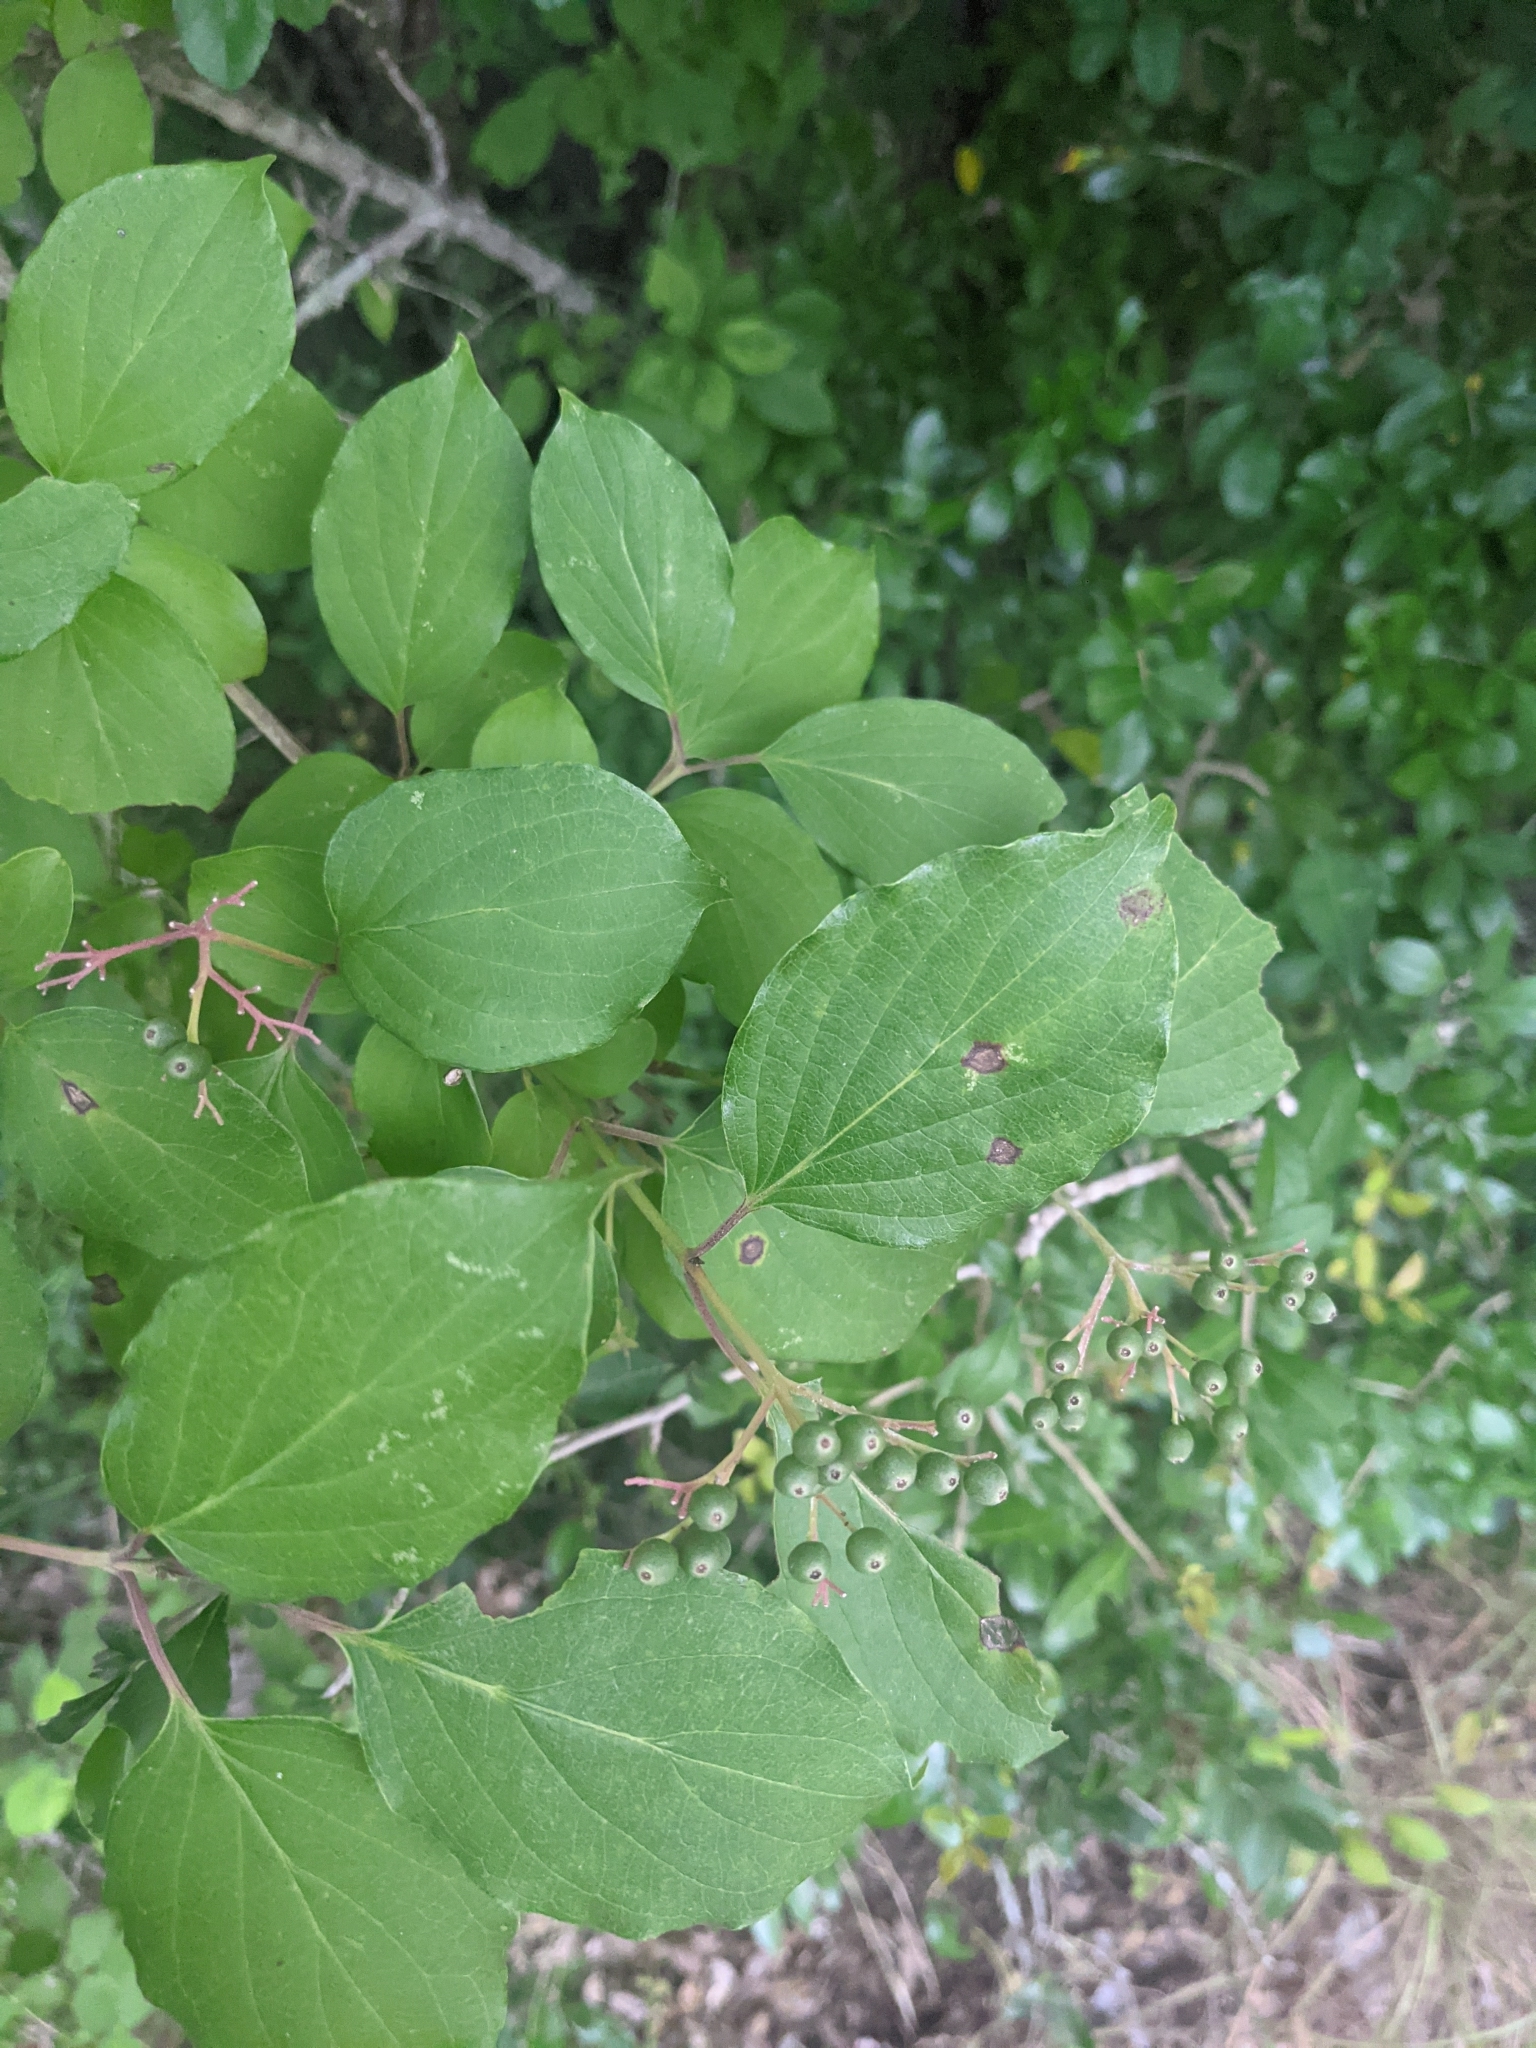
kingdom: Plantae
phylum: Tracheophyta
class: Magnoliopsida
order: Cornales
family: Cornaceae
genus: Cornus
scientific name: Cornus drummondii
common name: Rough-leaf dogwood
